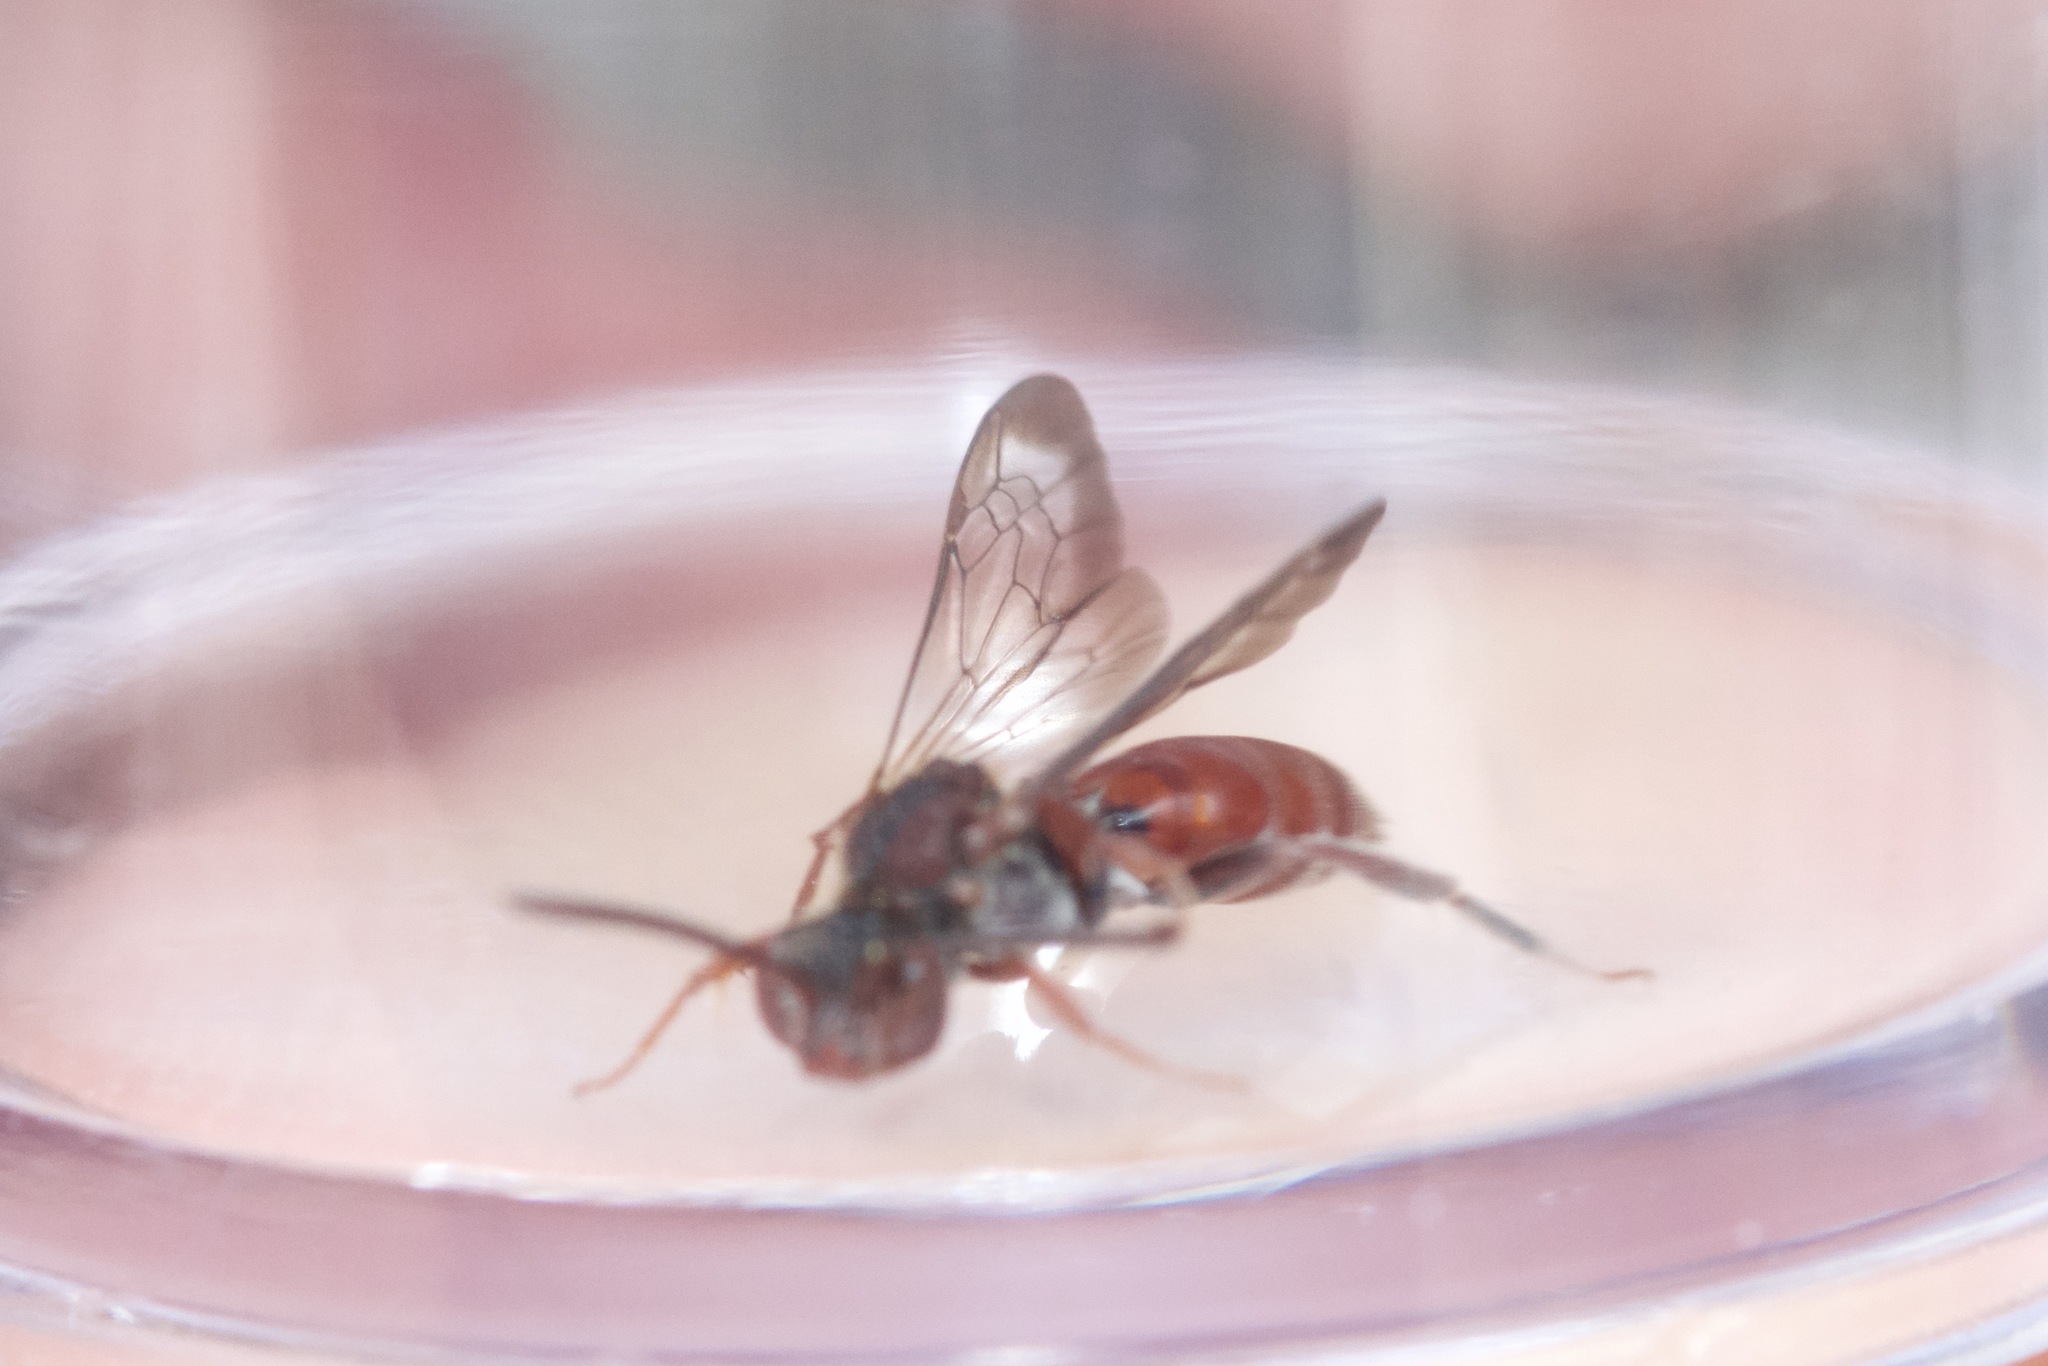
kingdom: Animalia
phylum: Arthropoda
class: Insecta
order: Hymenoptera
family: Apidae
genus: Nomada
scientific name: Nomada articulata
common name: Articulated nomad
